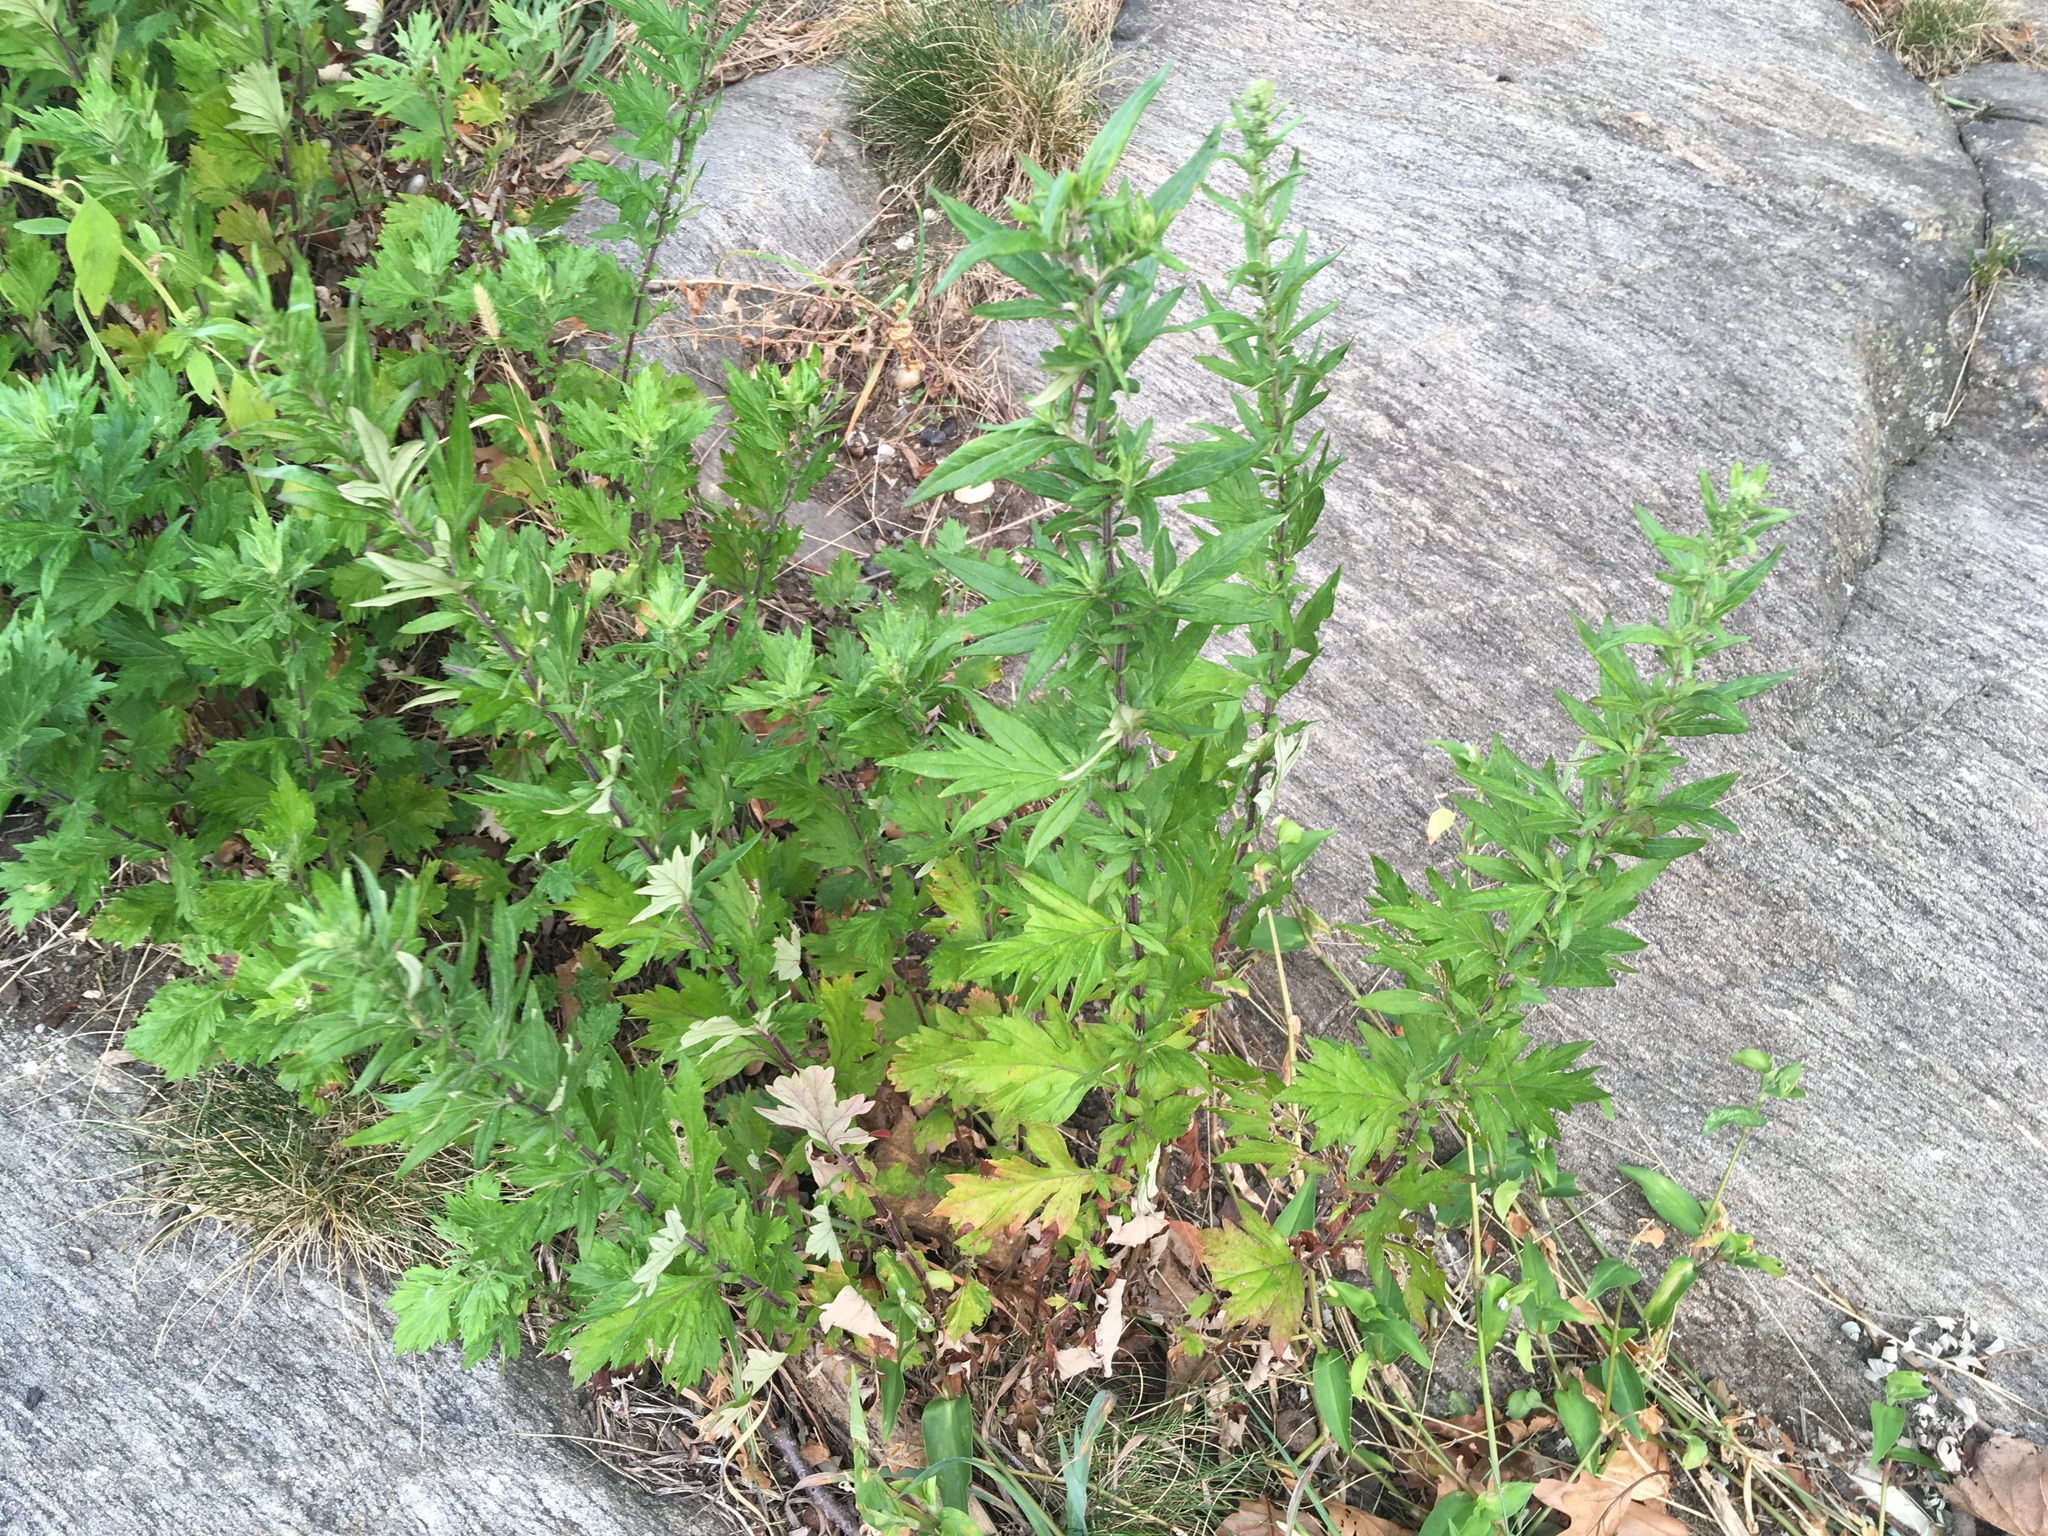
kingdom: Plantae
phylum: Tracheophyta
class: Magnoliopsida
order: Asterales
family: Asteraceae
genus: Artemisia
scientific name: Artemisia vulgaris
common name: Mugwort
